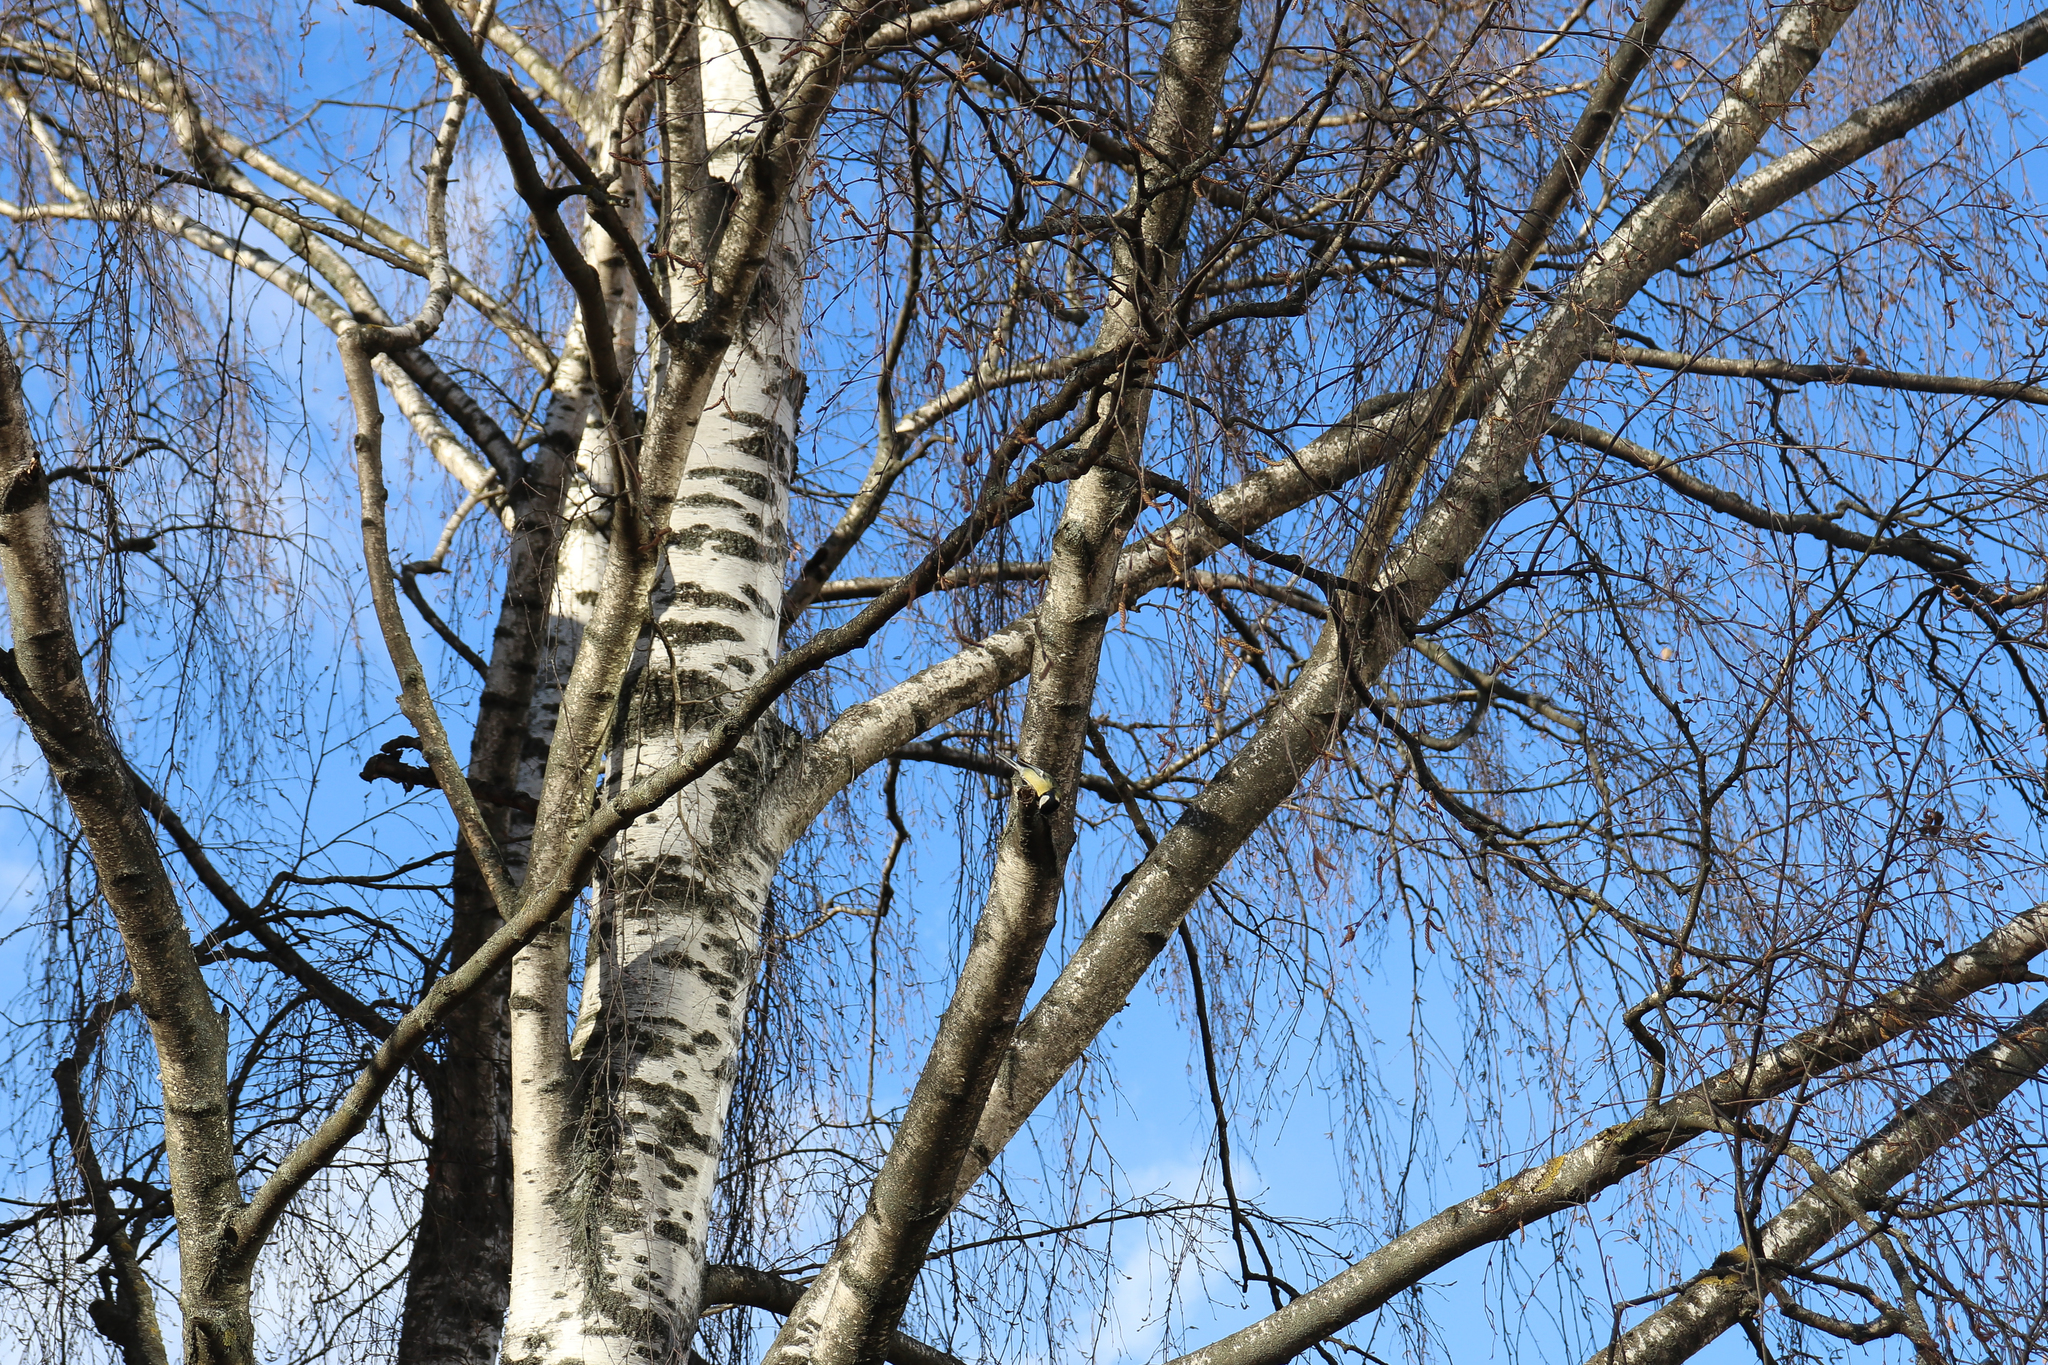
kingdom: Animalia
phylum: Chordata
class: Aves
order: Passeriformes
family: Paridae
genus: Parus
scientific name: Parus major
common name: Great tit
